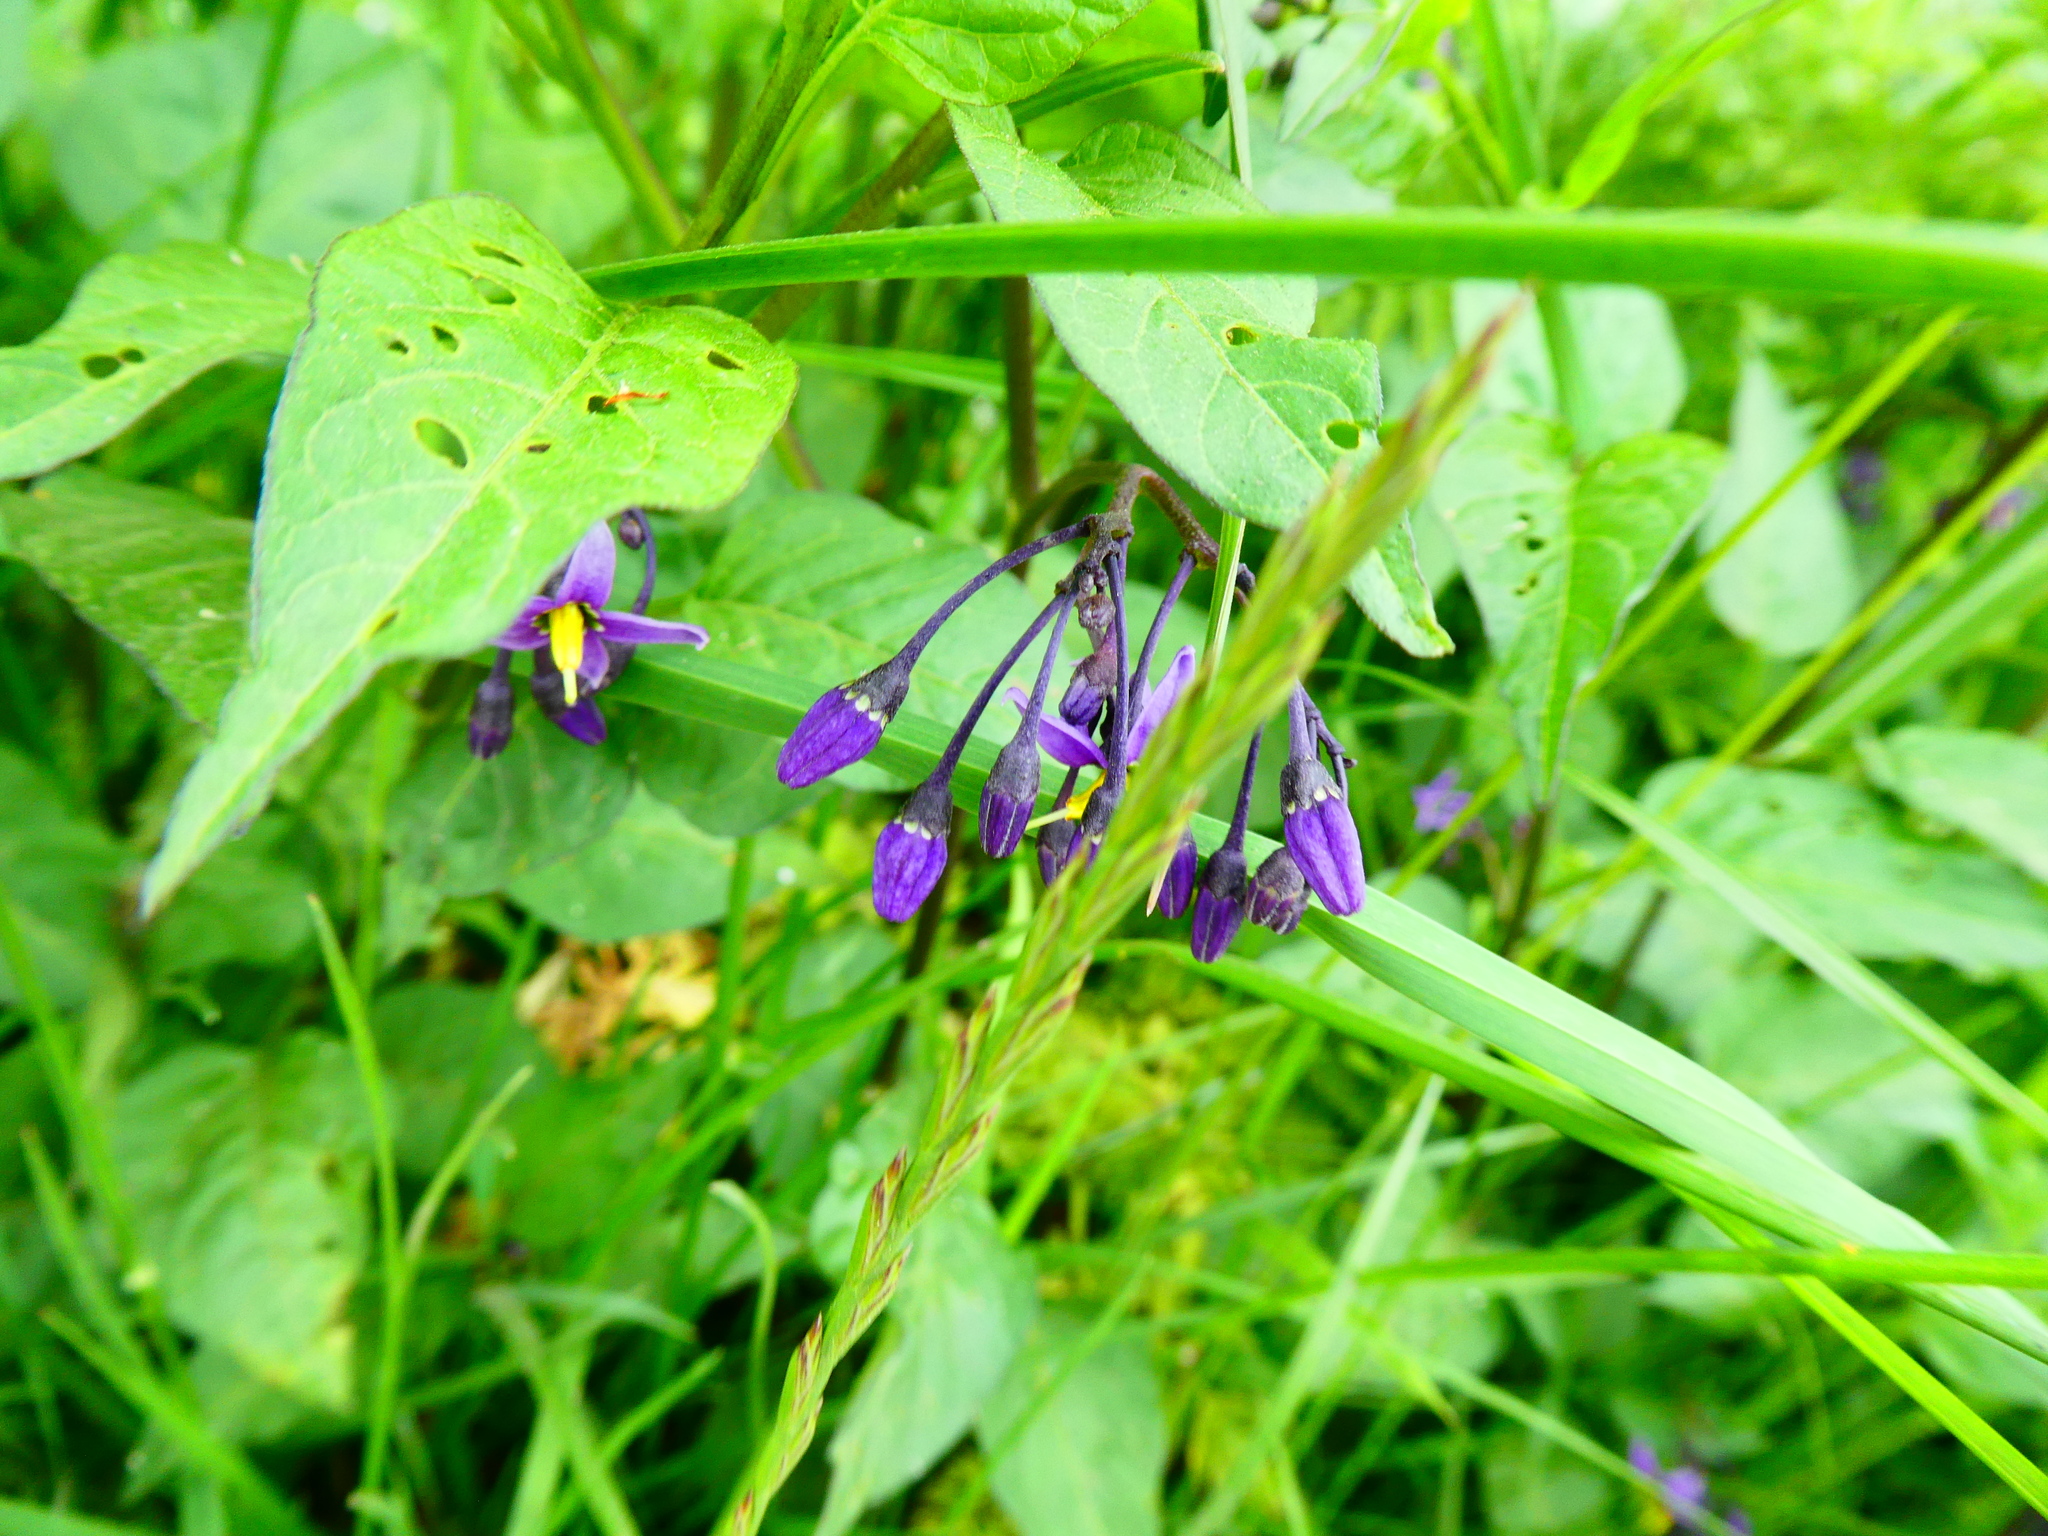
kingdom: Plantae
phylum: Tracheophyta
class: Magnoliopsida
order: Solanales
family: Solanaceae
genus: Solanum
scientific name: Solanum dulcamara
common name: Climbing nightshade
